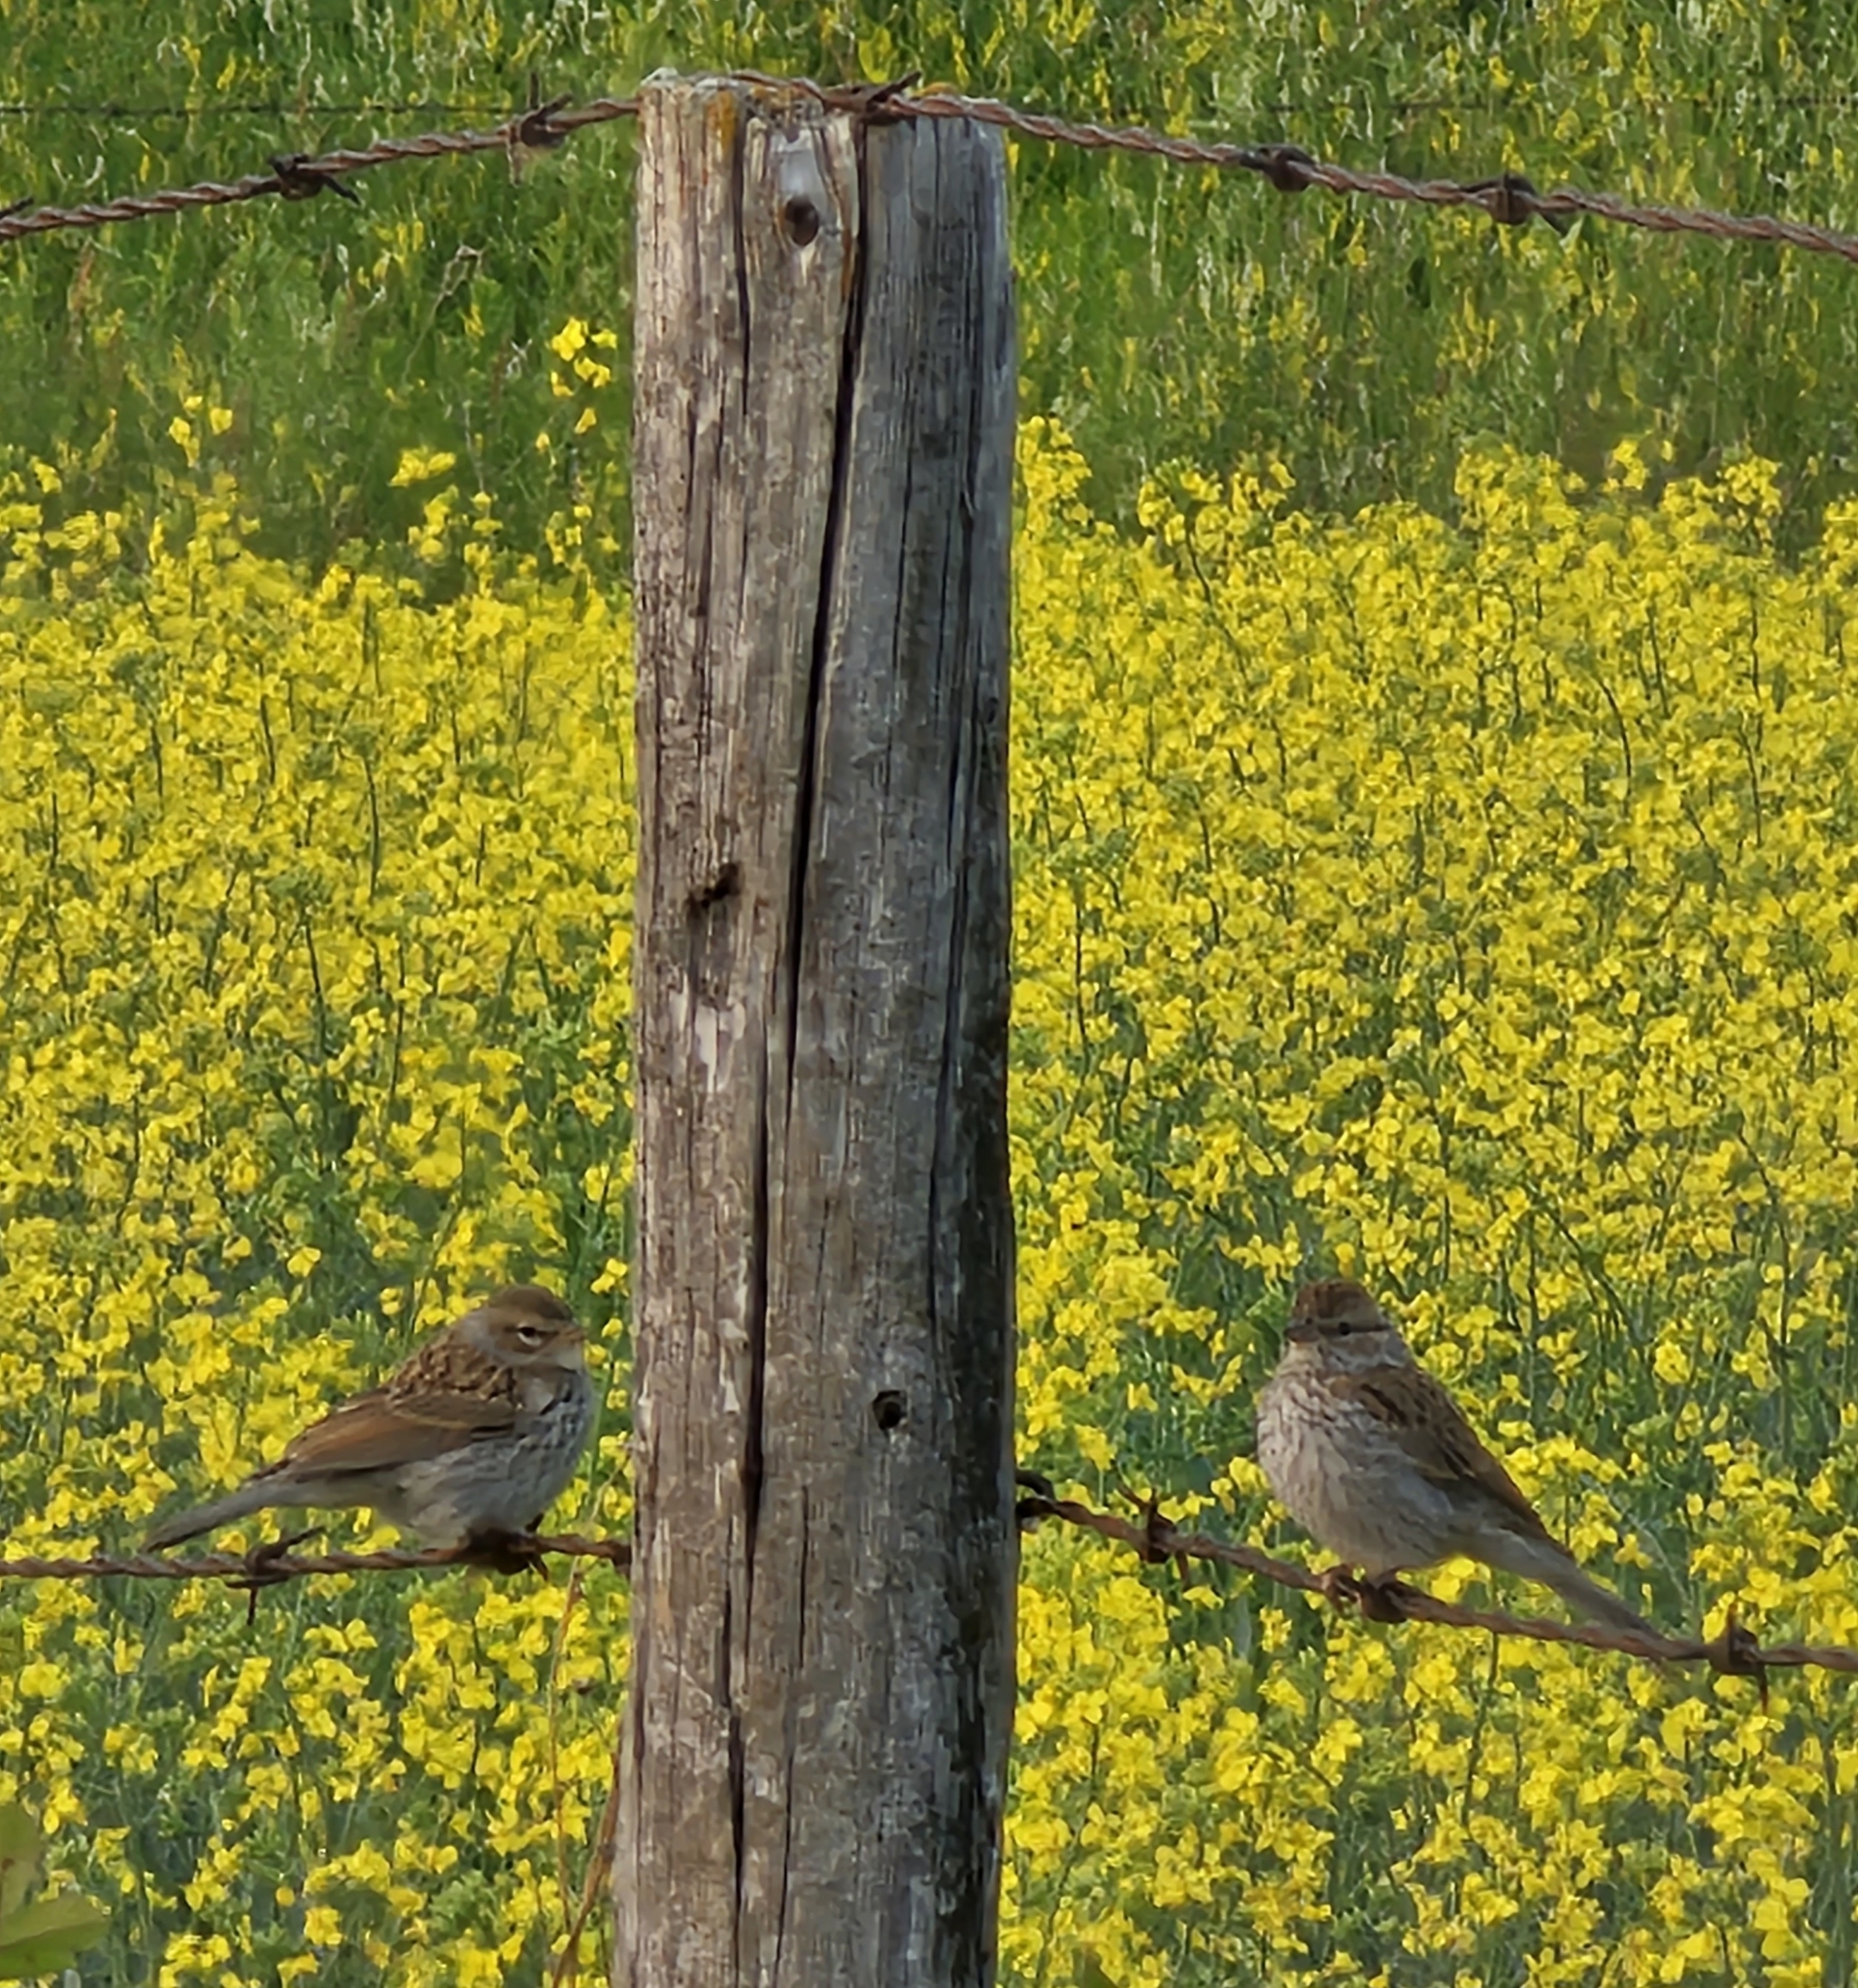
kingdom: Animalia
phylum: Chordata
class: Aves
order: Passeriformes
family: Passerellidae
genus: Spizella
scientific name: Spizella passerina
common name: Chipping sparrow
